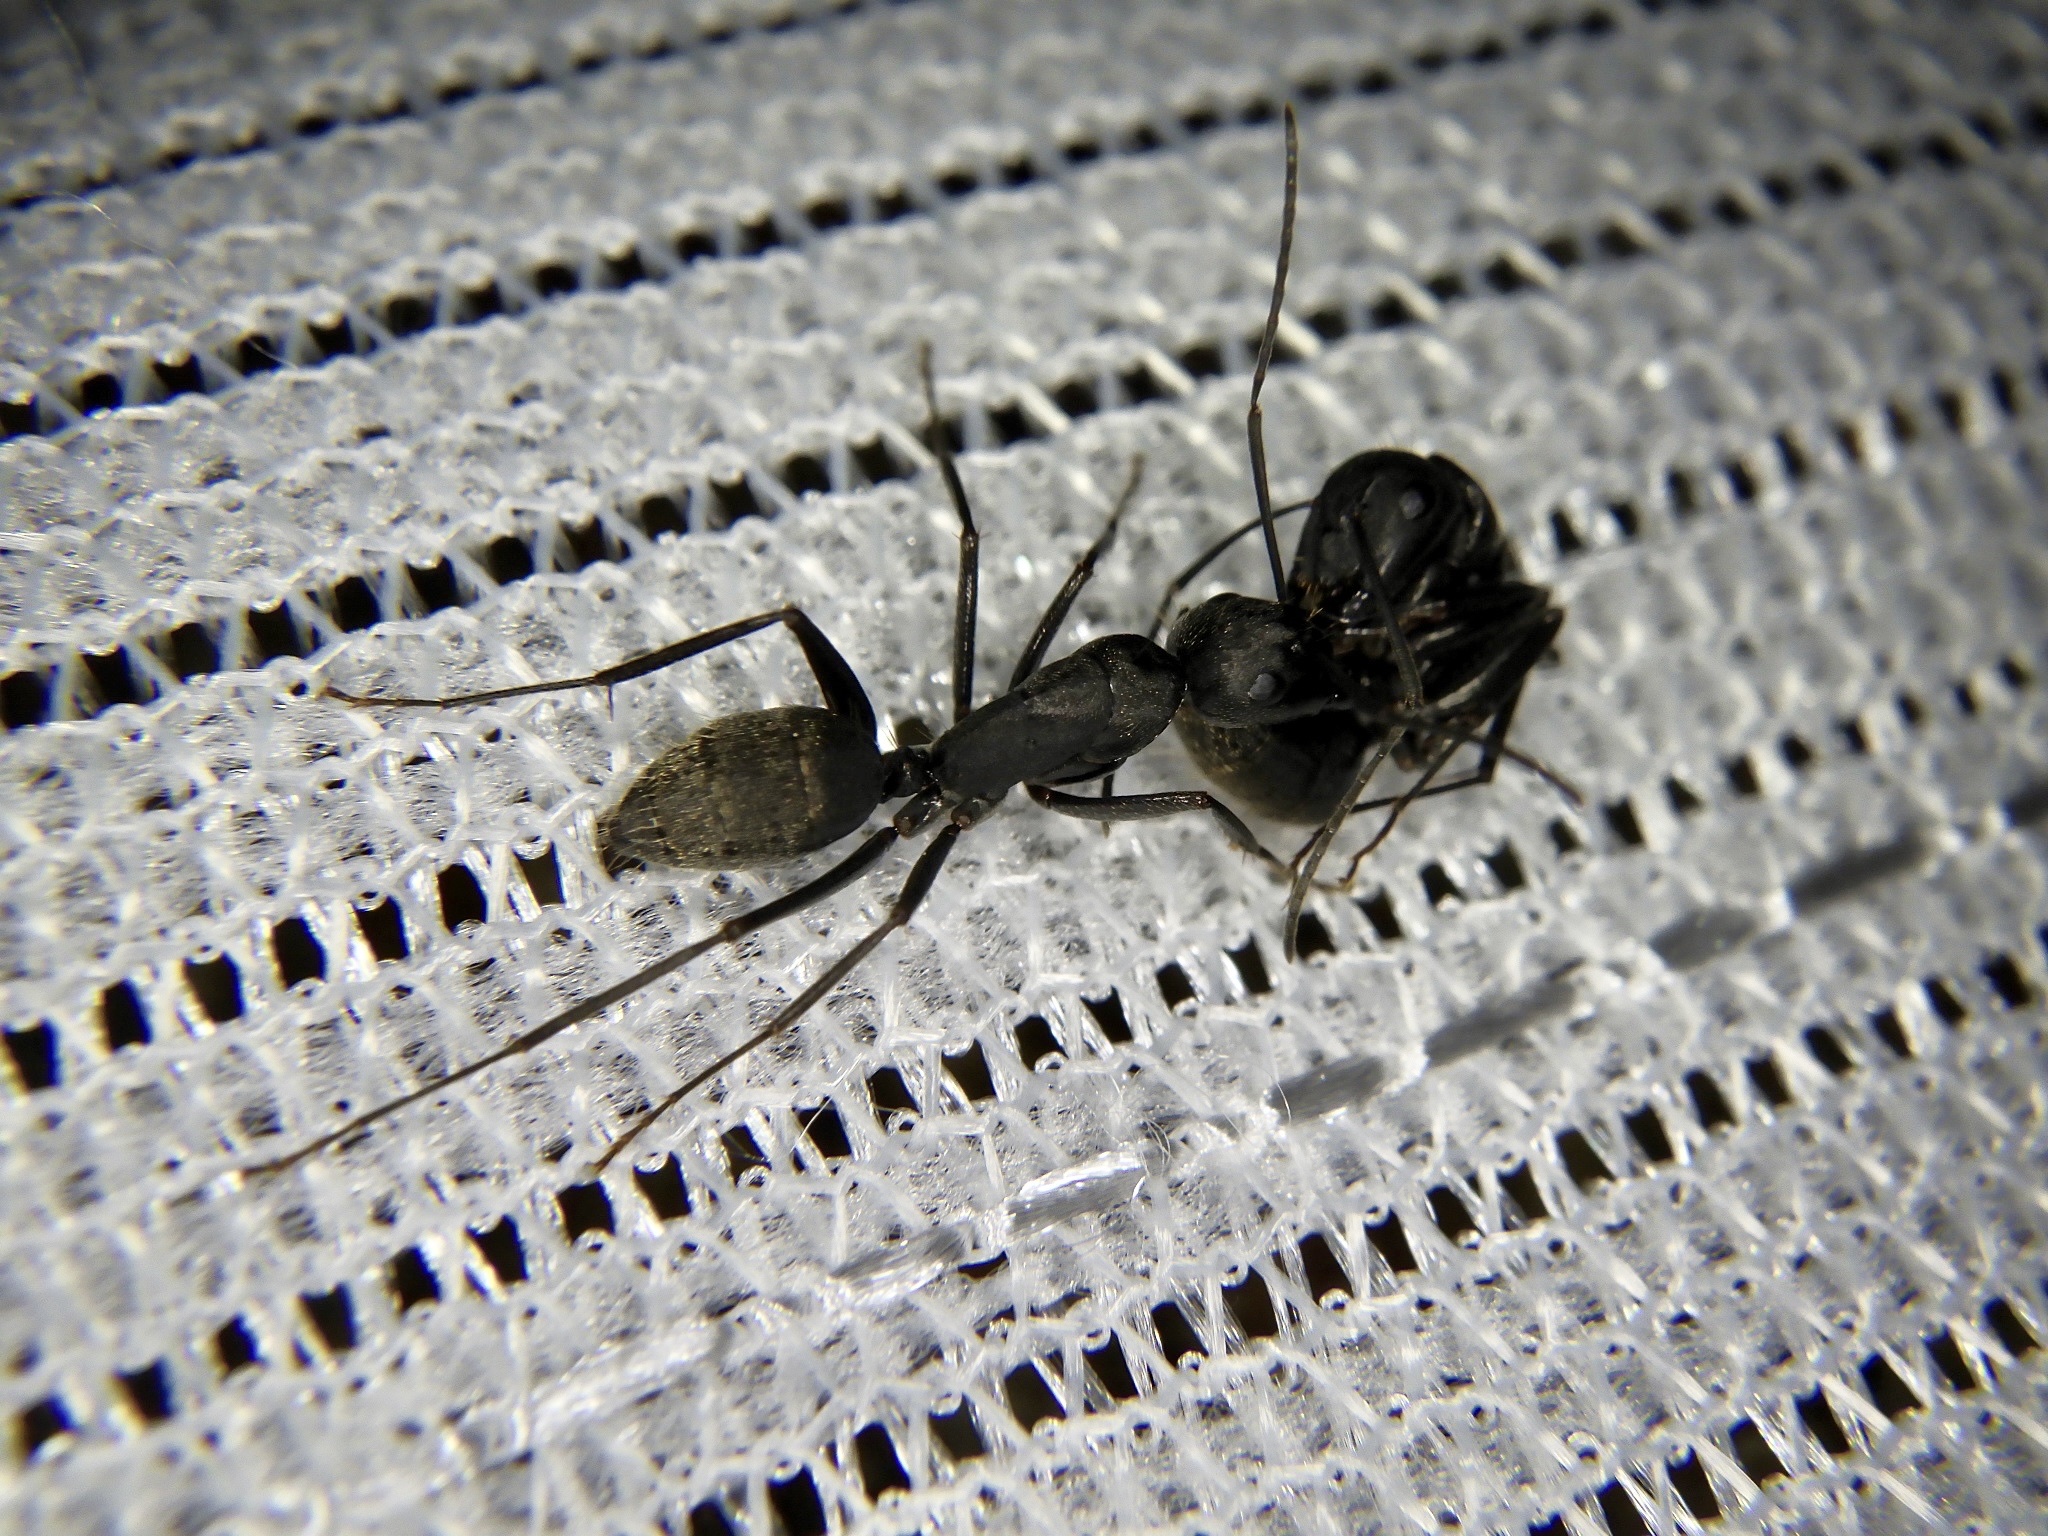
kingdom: Animalia
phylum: Arthropoda
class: Insecta
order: Hymenoptera
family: Formicidae
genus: Camponotus
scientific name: Camponotus japonicus
